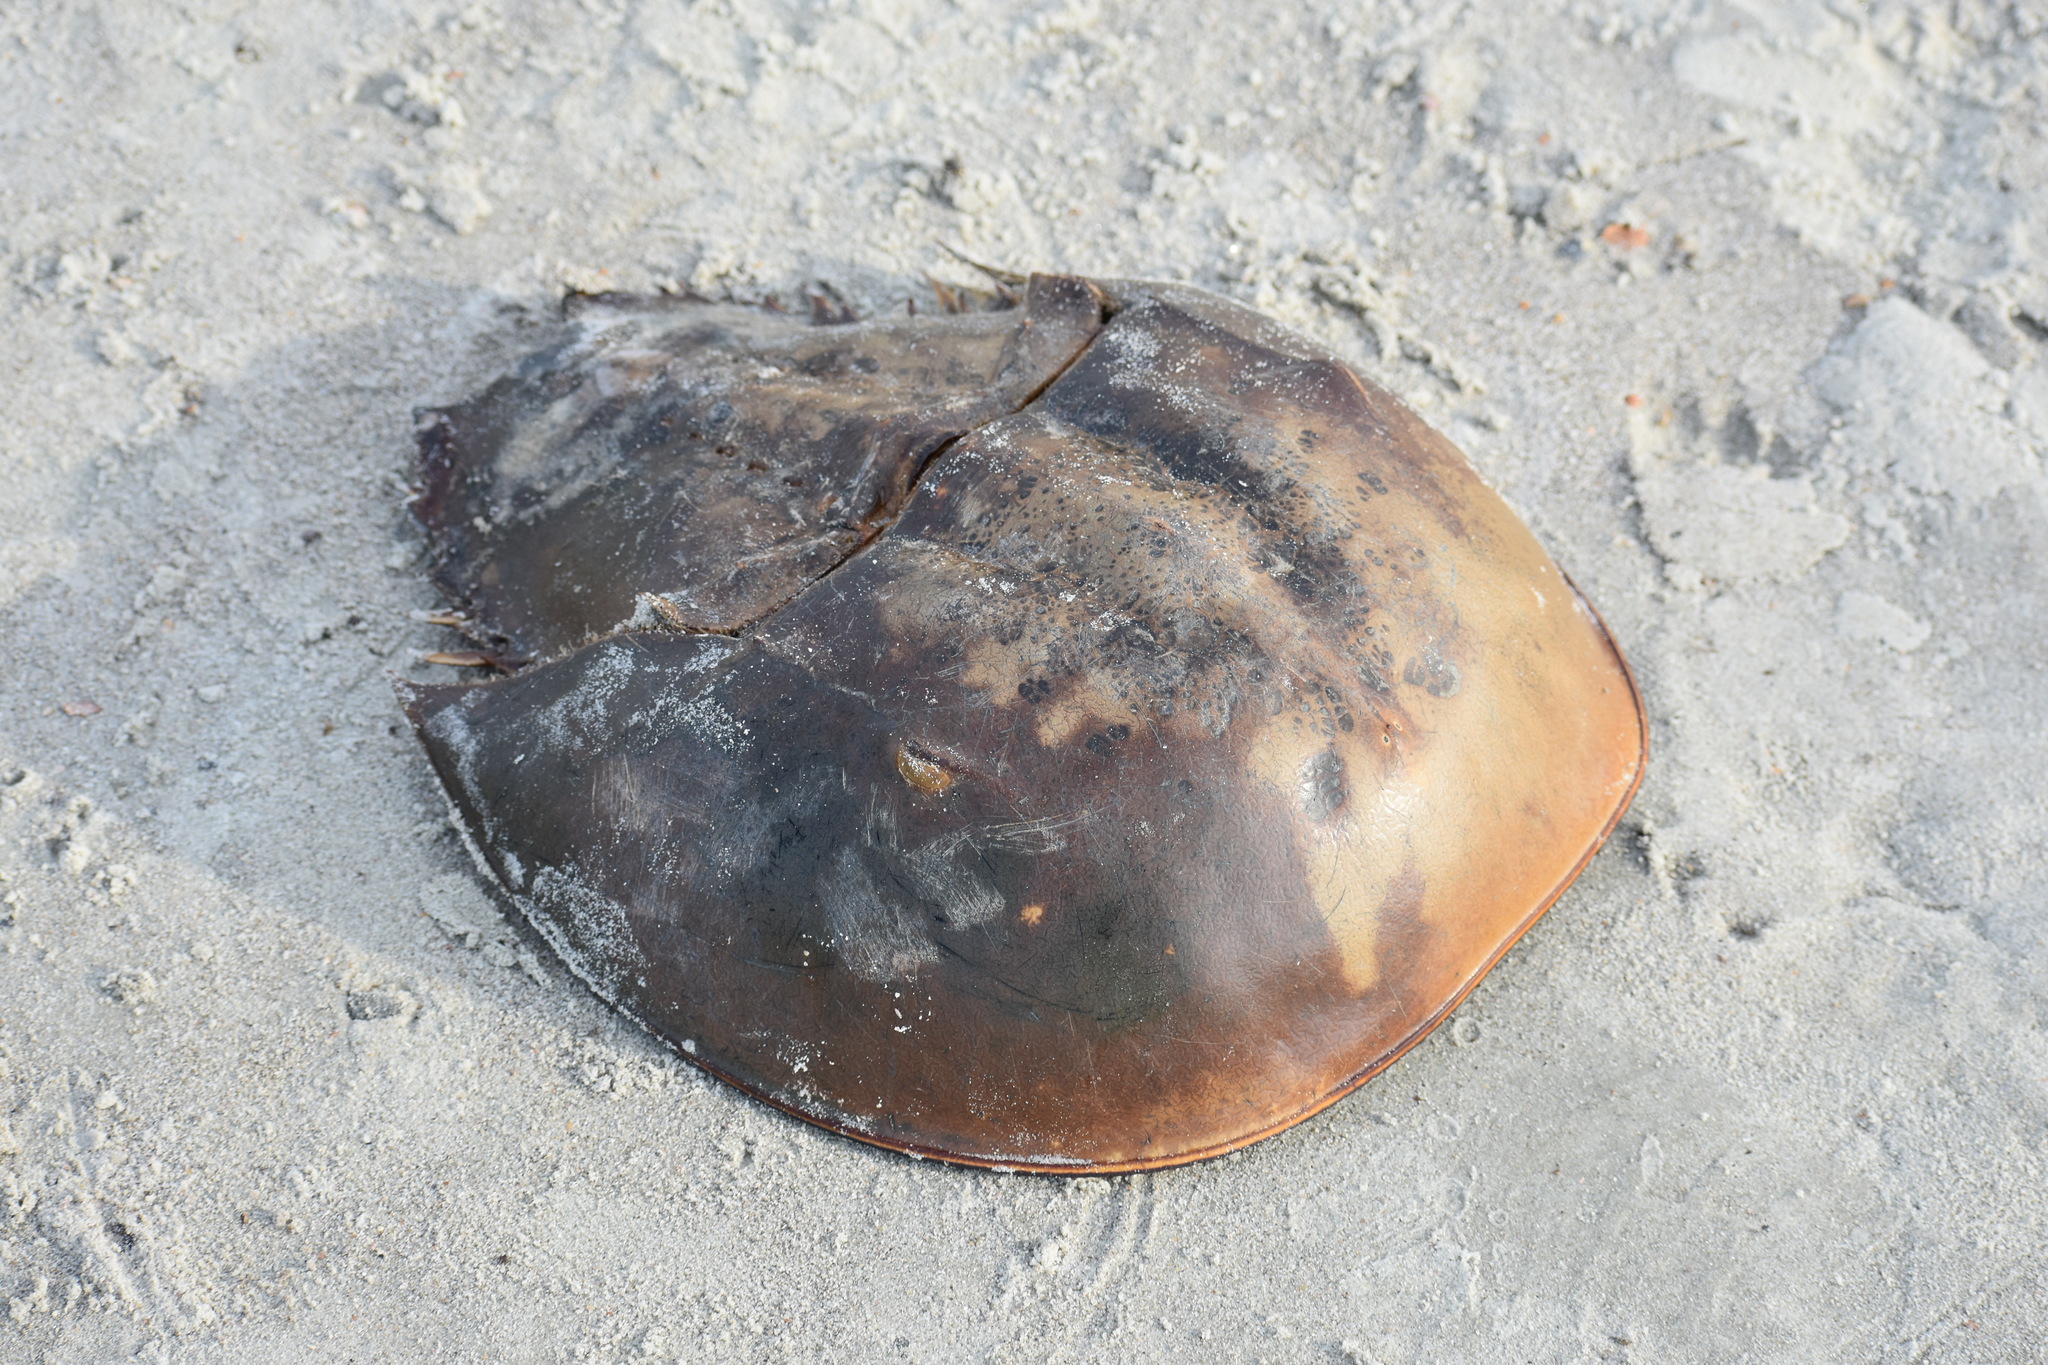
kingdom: Animalia
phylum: Arthropoda
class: Merostomata
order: Xiphosurida
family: Limulidae
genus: Limulus
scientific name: Limulus polyphemus
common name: Horseshoe crab
